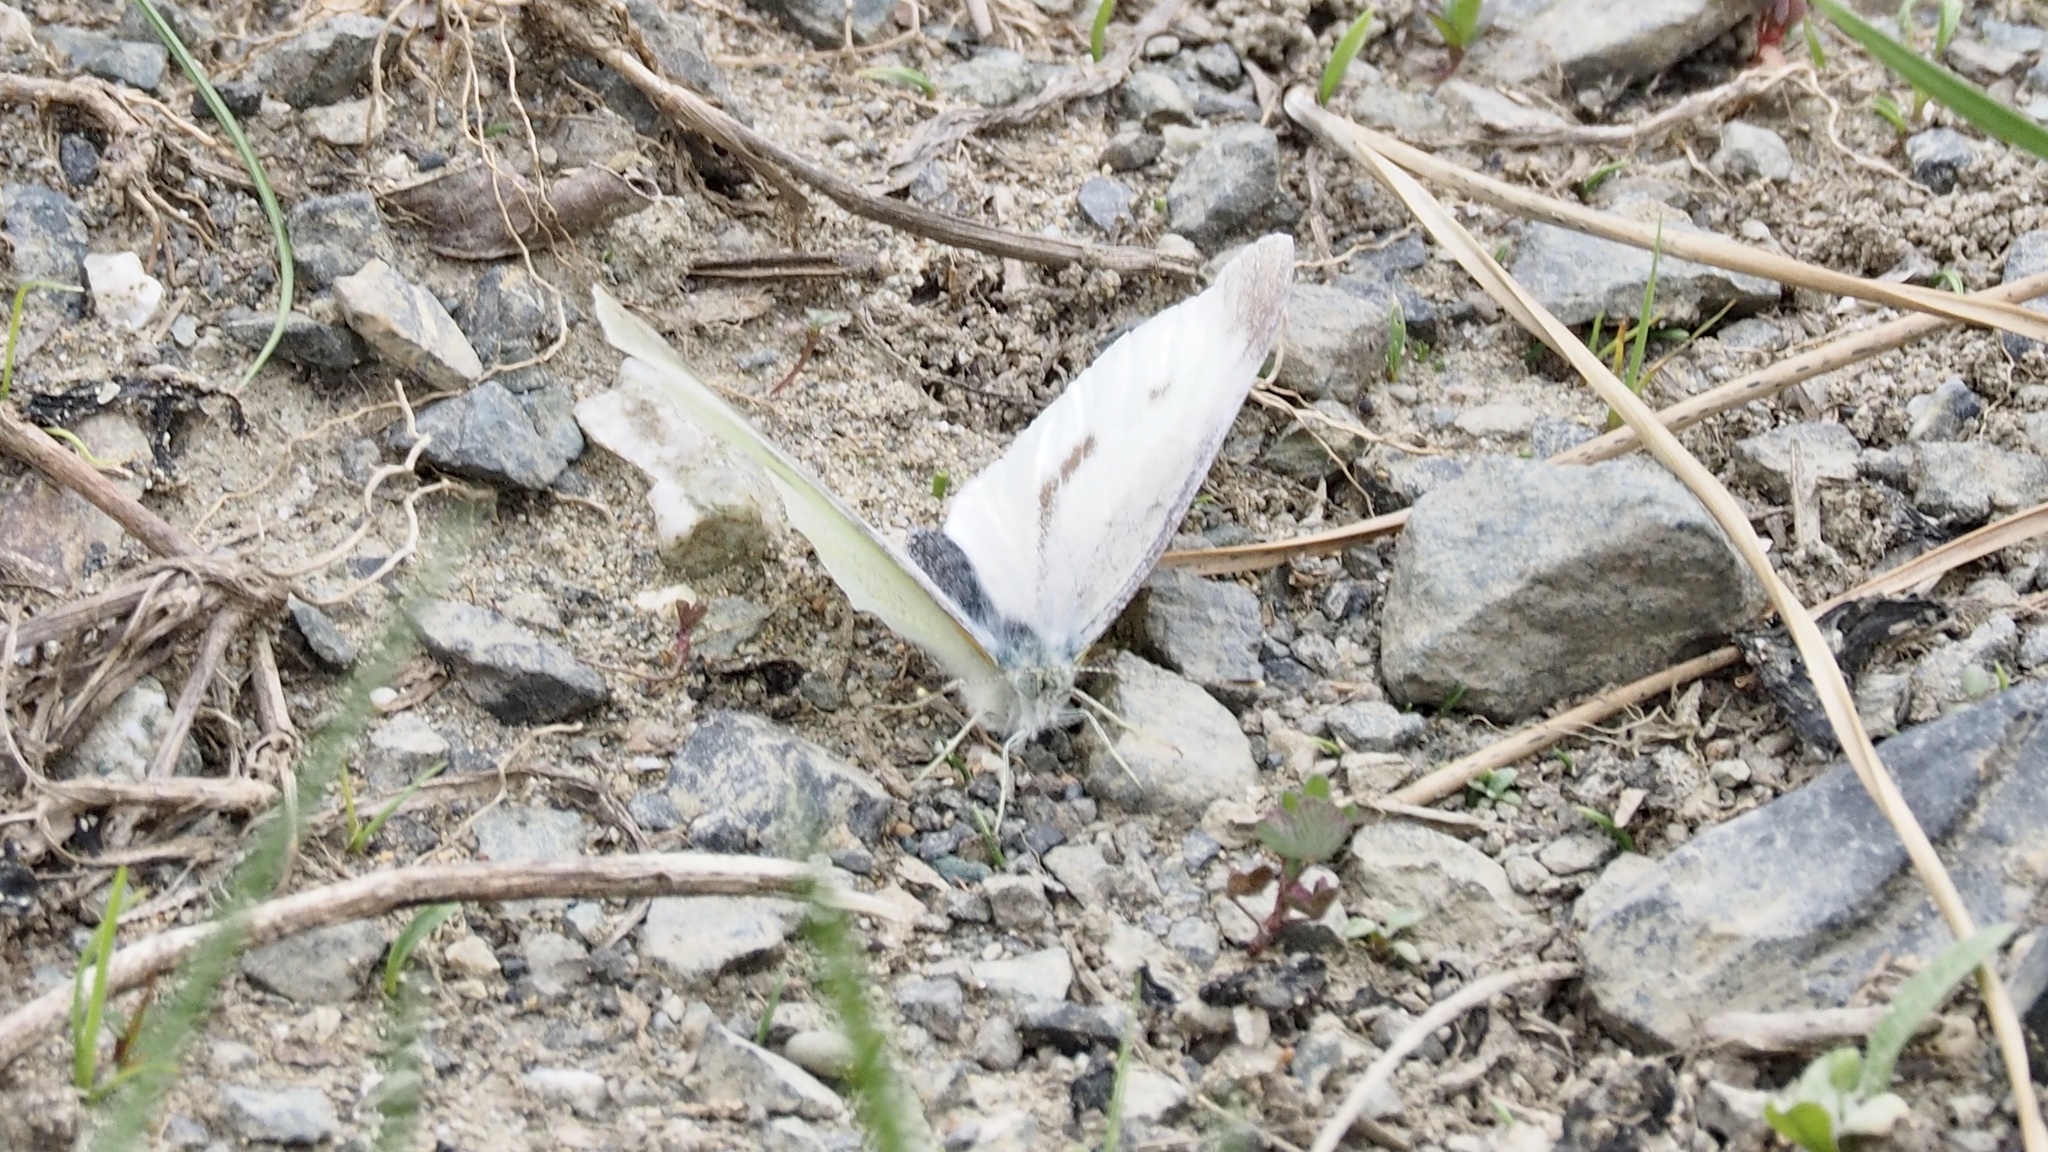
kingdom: Animalia
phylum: Arthropoda
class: Insecta
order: Lepidoptera
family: Pieridae
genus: Pieris
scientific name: Pieris rapae
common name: Small white
